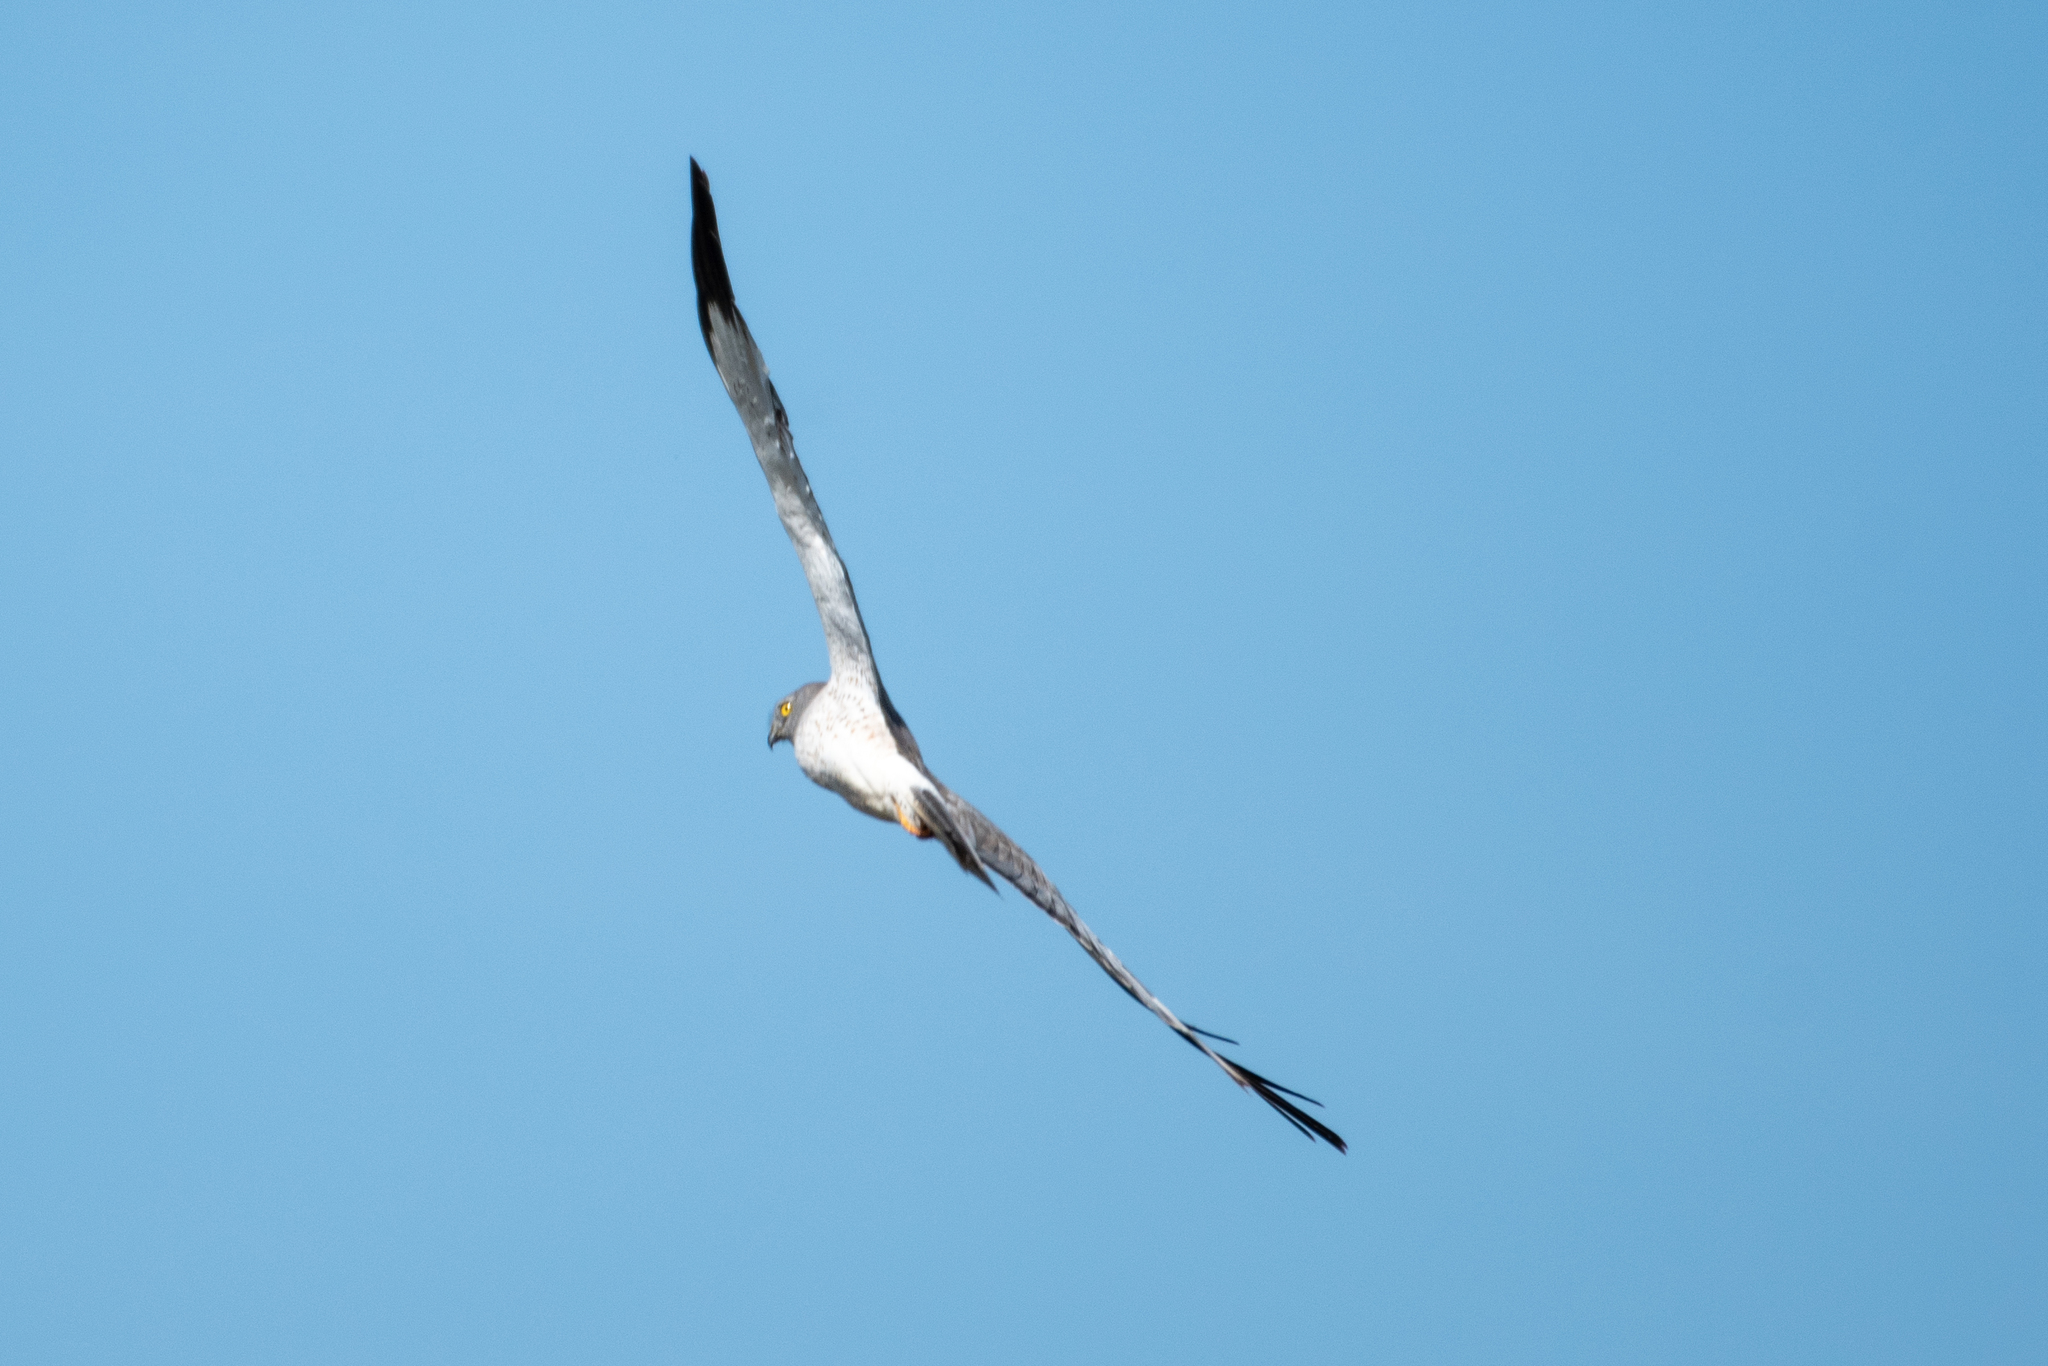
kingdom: Animalia
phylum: Chordata
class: Aves
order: Accipitriformes
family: Accipitridae
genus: Circus
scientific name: Circus cyaneus
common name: Hen harrier
